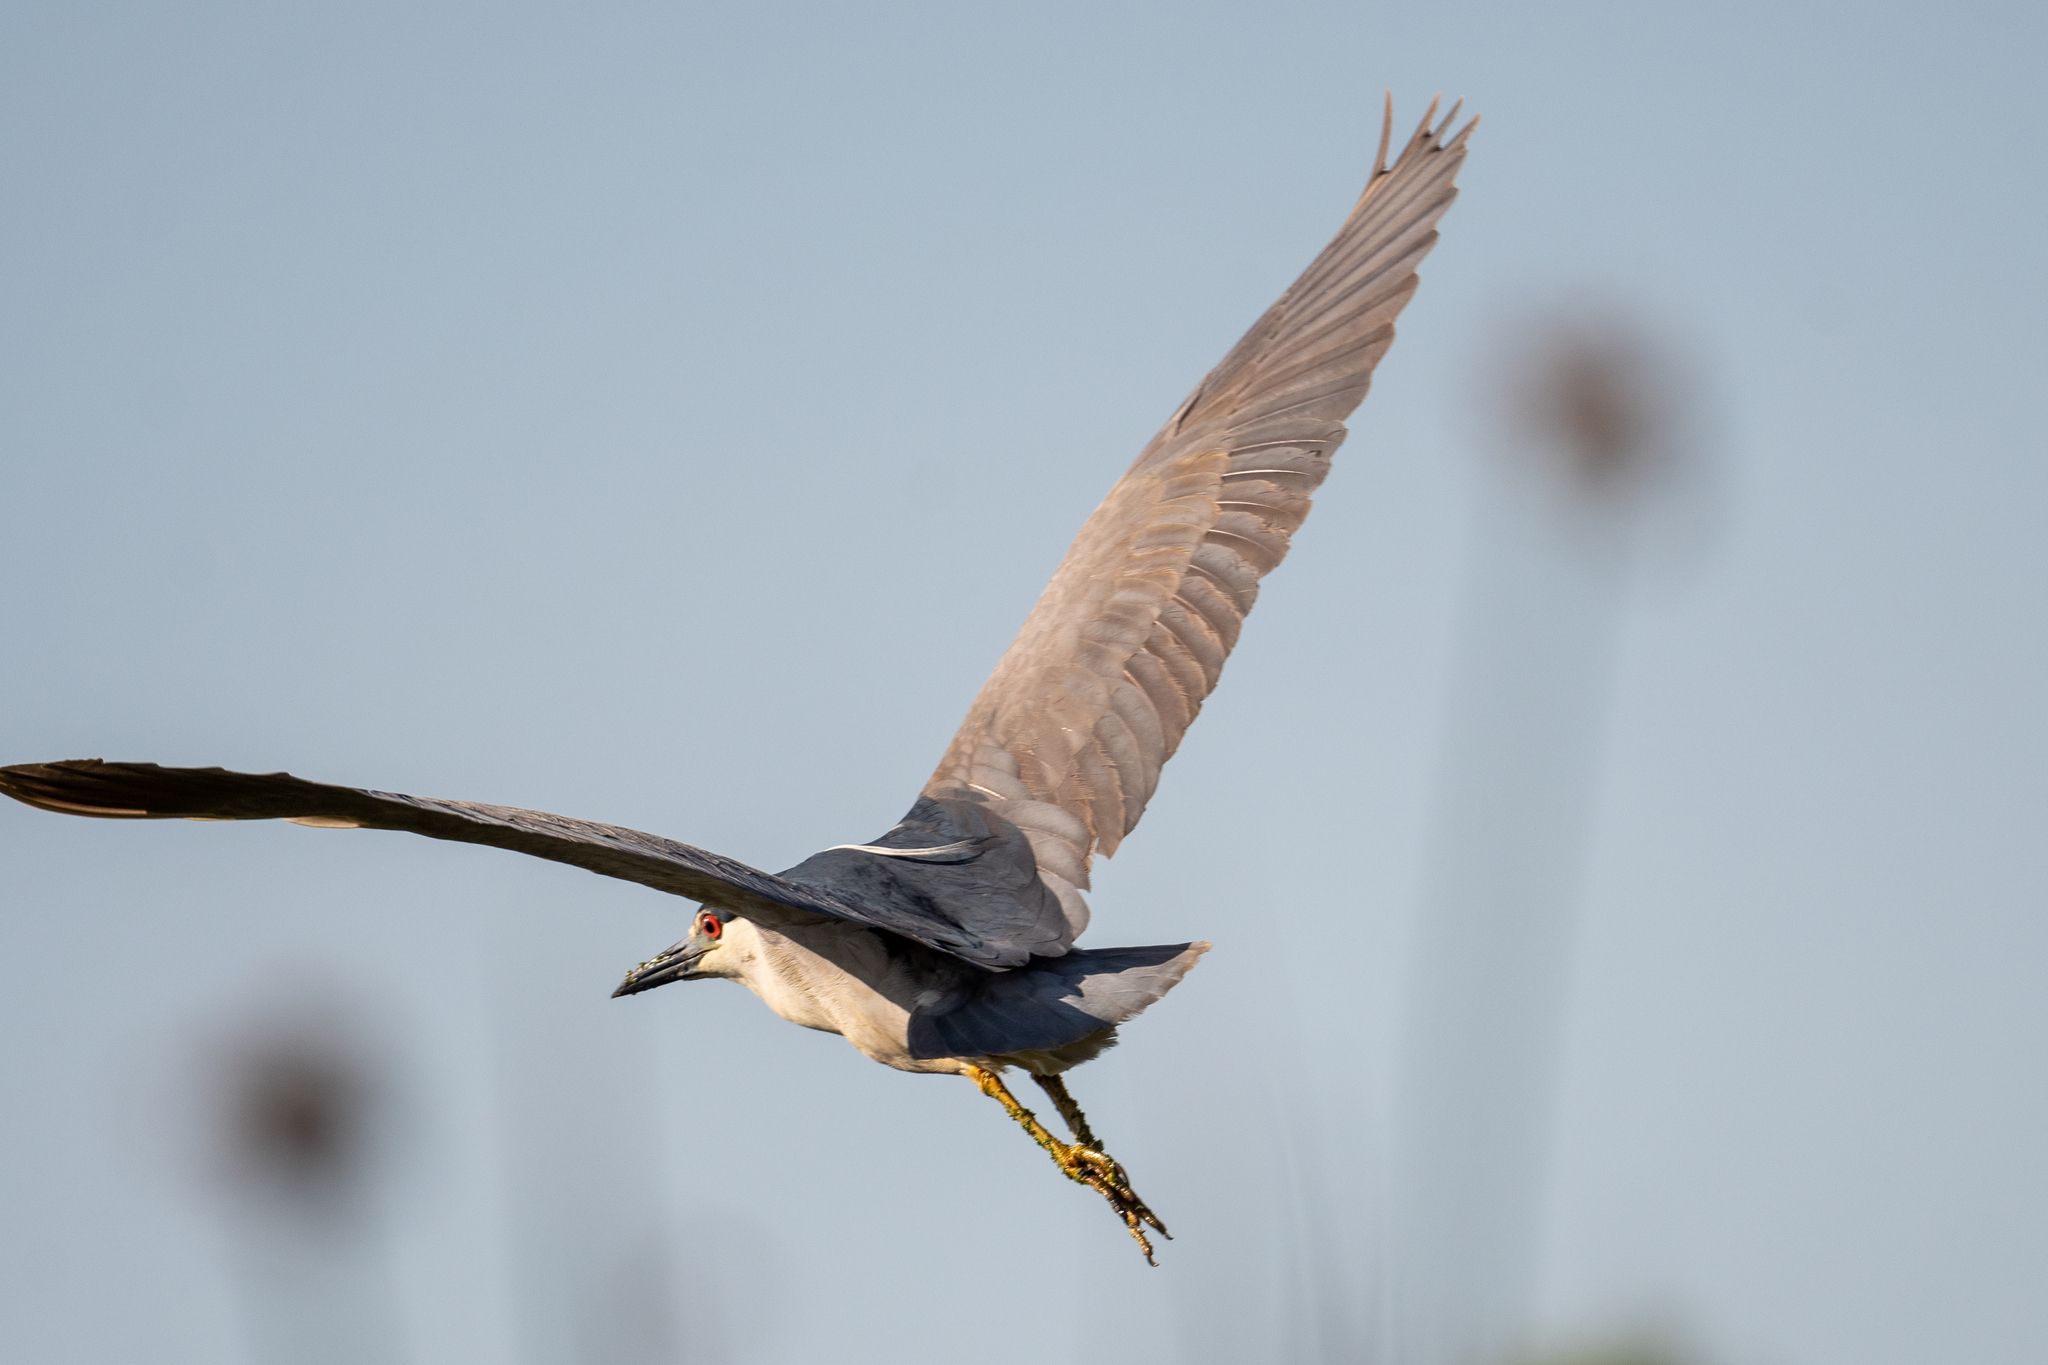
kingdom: Animalia
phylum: Chordata
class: Aves
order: Pelecaniformes
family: Ardeidae
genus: Nycticorax
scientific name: Nycticorax nycticorax
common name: Black-crowned night heron
